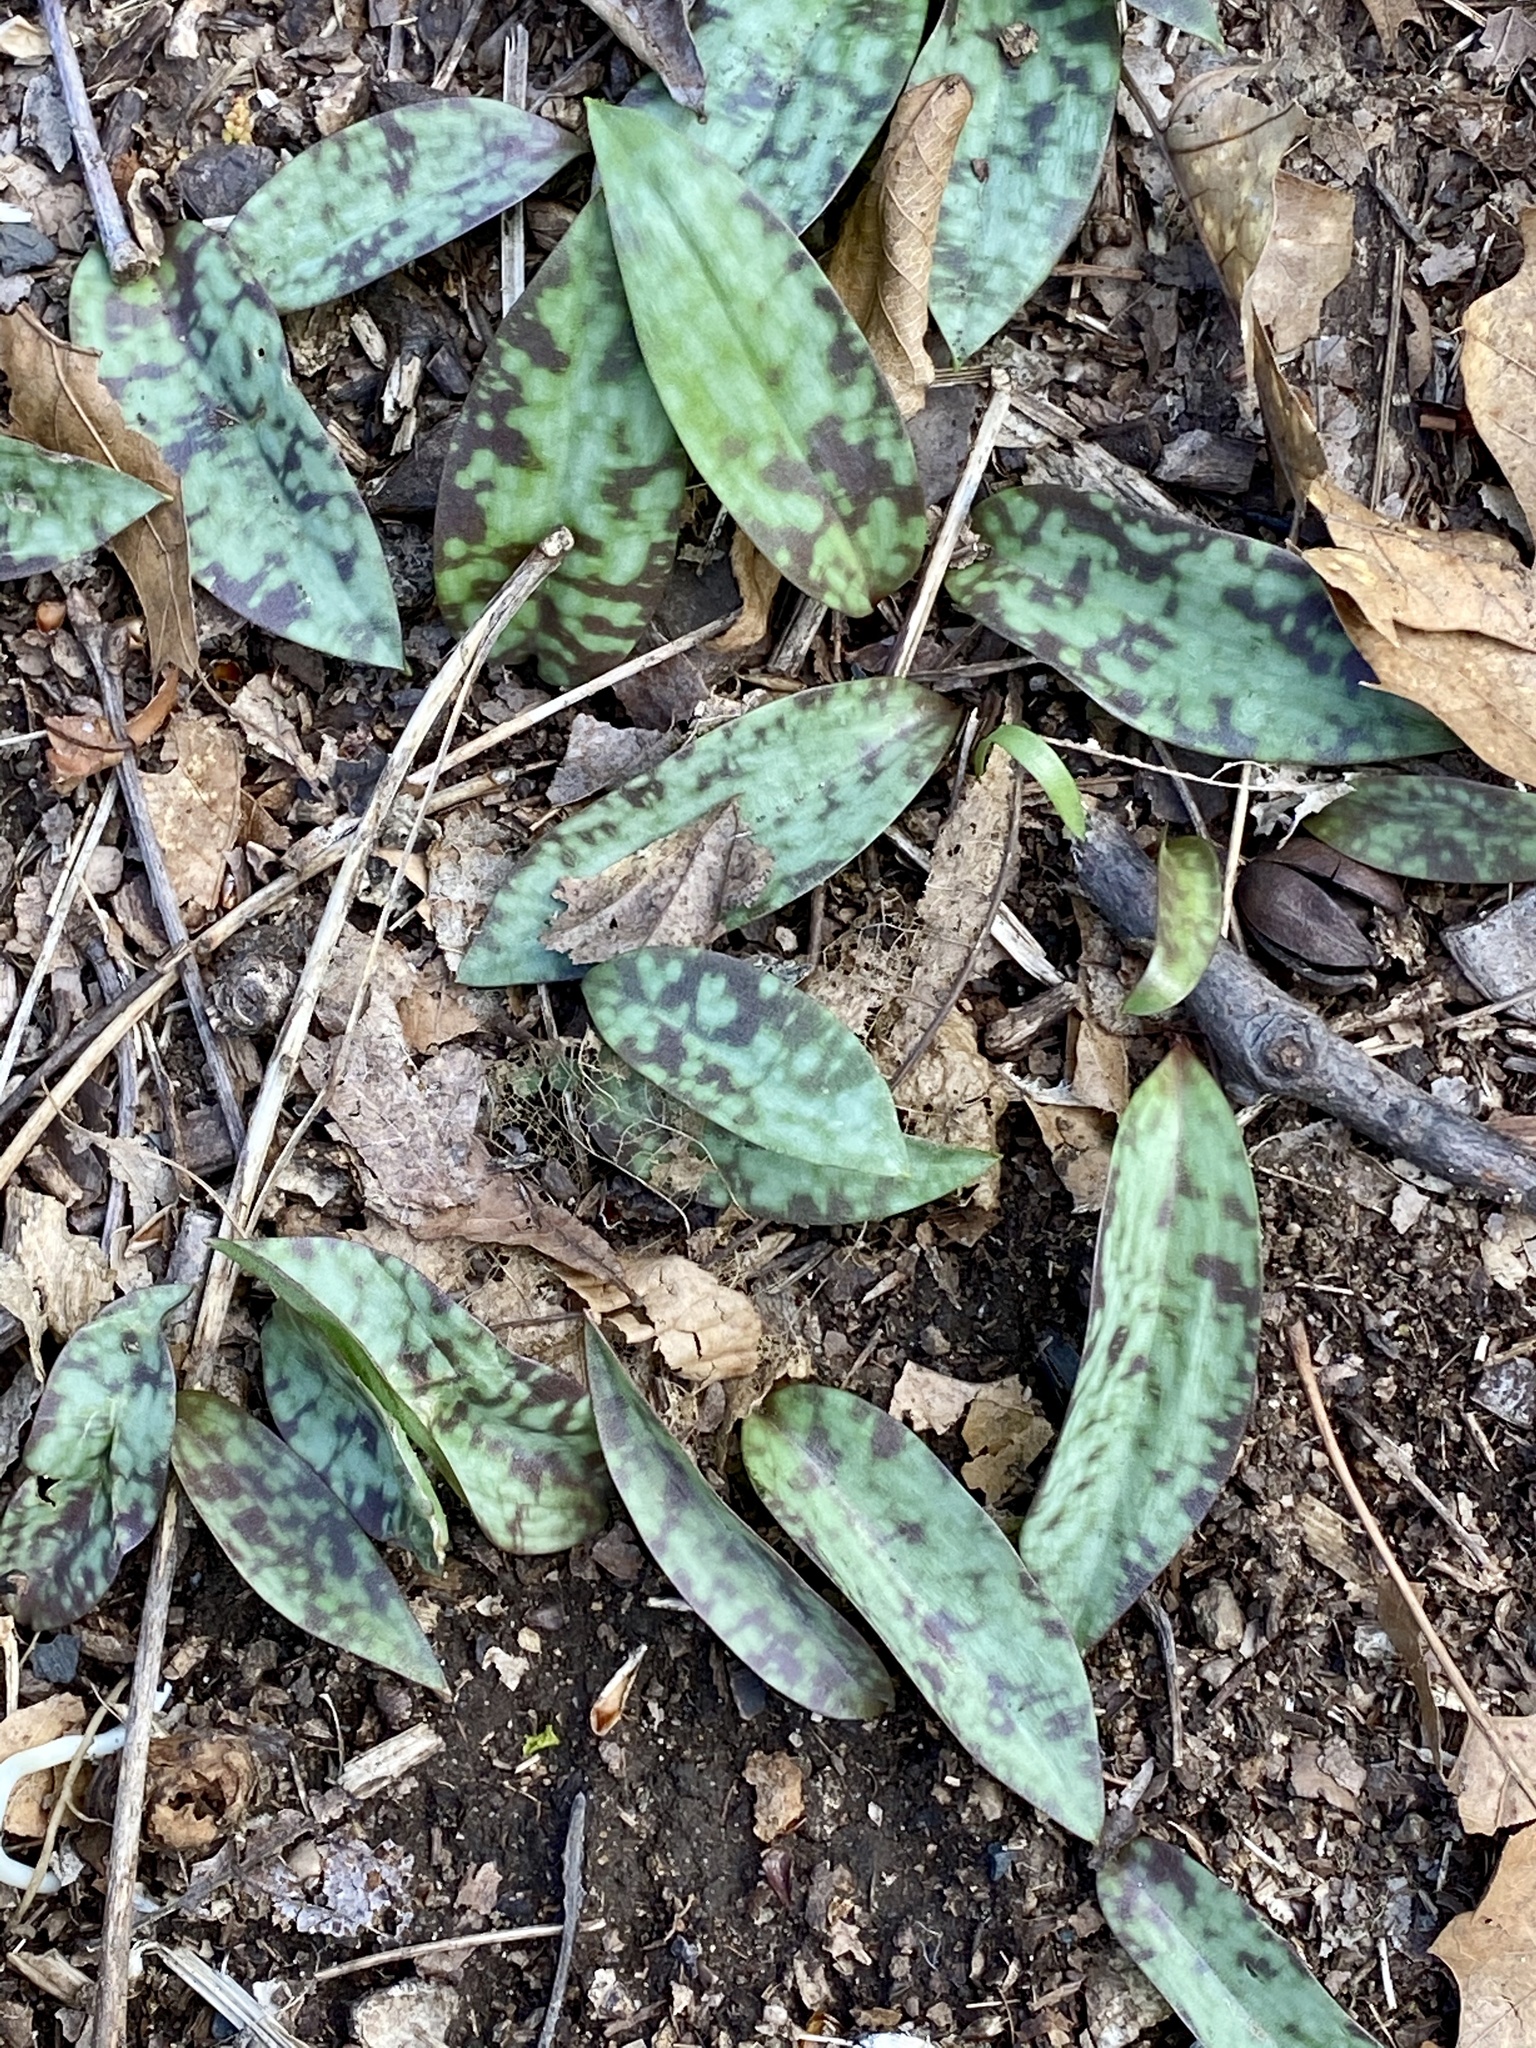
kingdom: Plantae
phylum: Tracheophyta
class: Liliopsida
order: Liliales
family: Liliaceae
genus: Erythronium
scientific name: Erythronium americanum
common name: Yellow adder's-tongue
